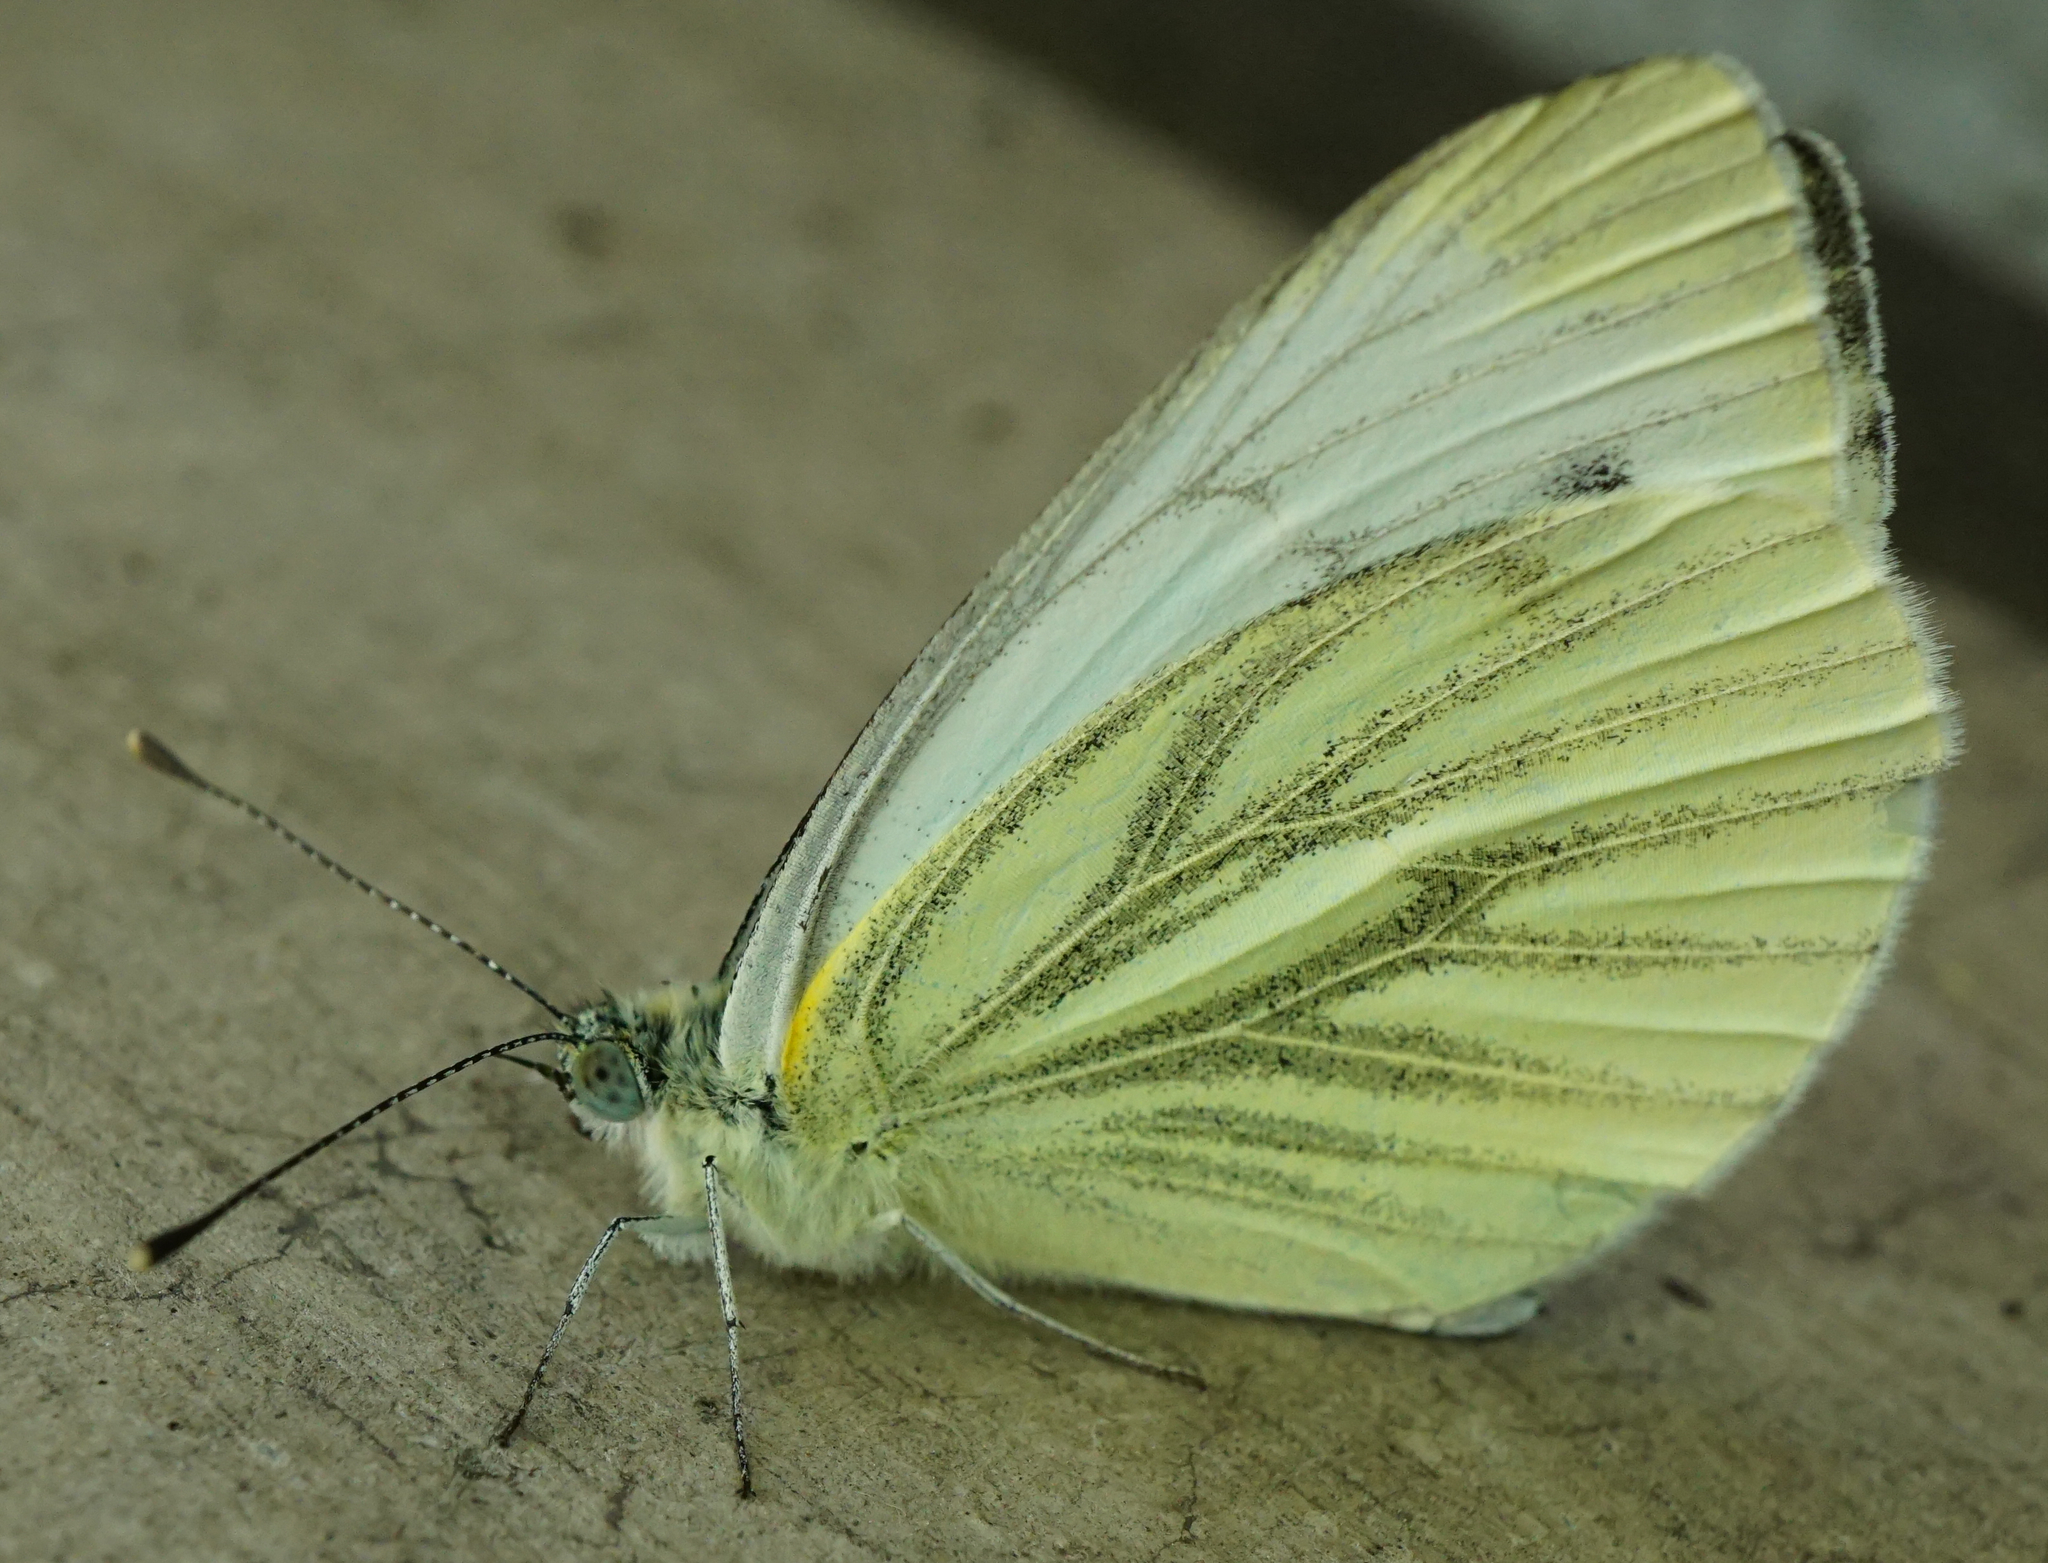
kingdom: Animalia
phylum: Arthropoda
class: Insecta
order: Lepidoptera
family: Pieridae
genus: Pieris
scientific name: Pieris napi
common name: Green-veined white
